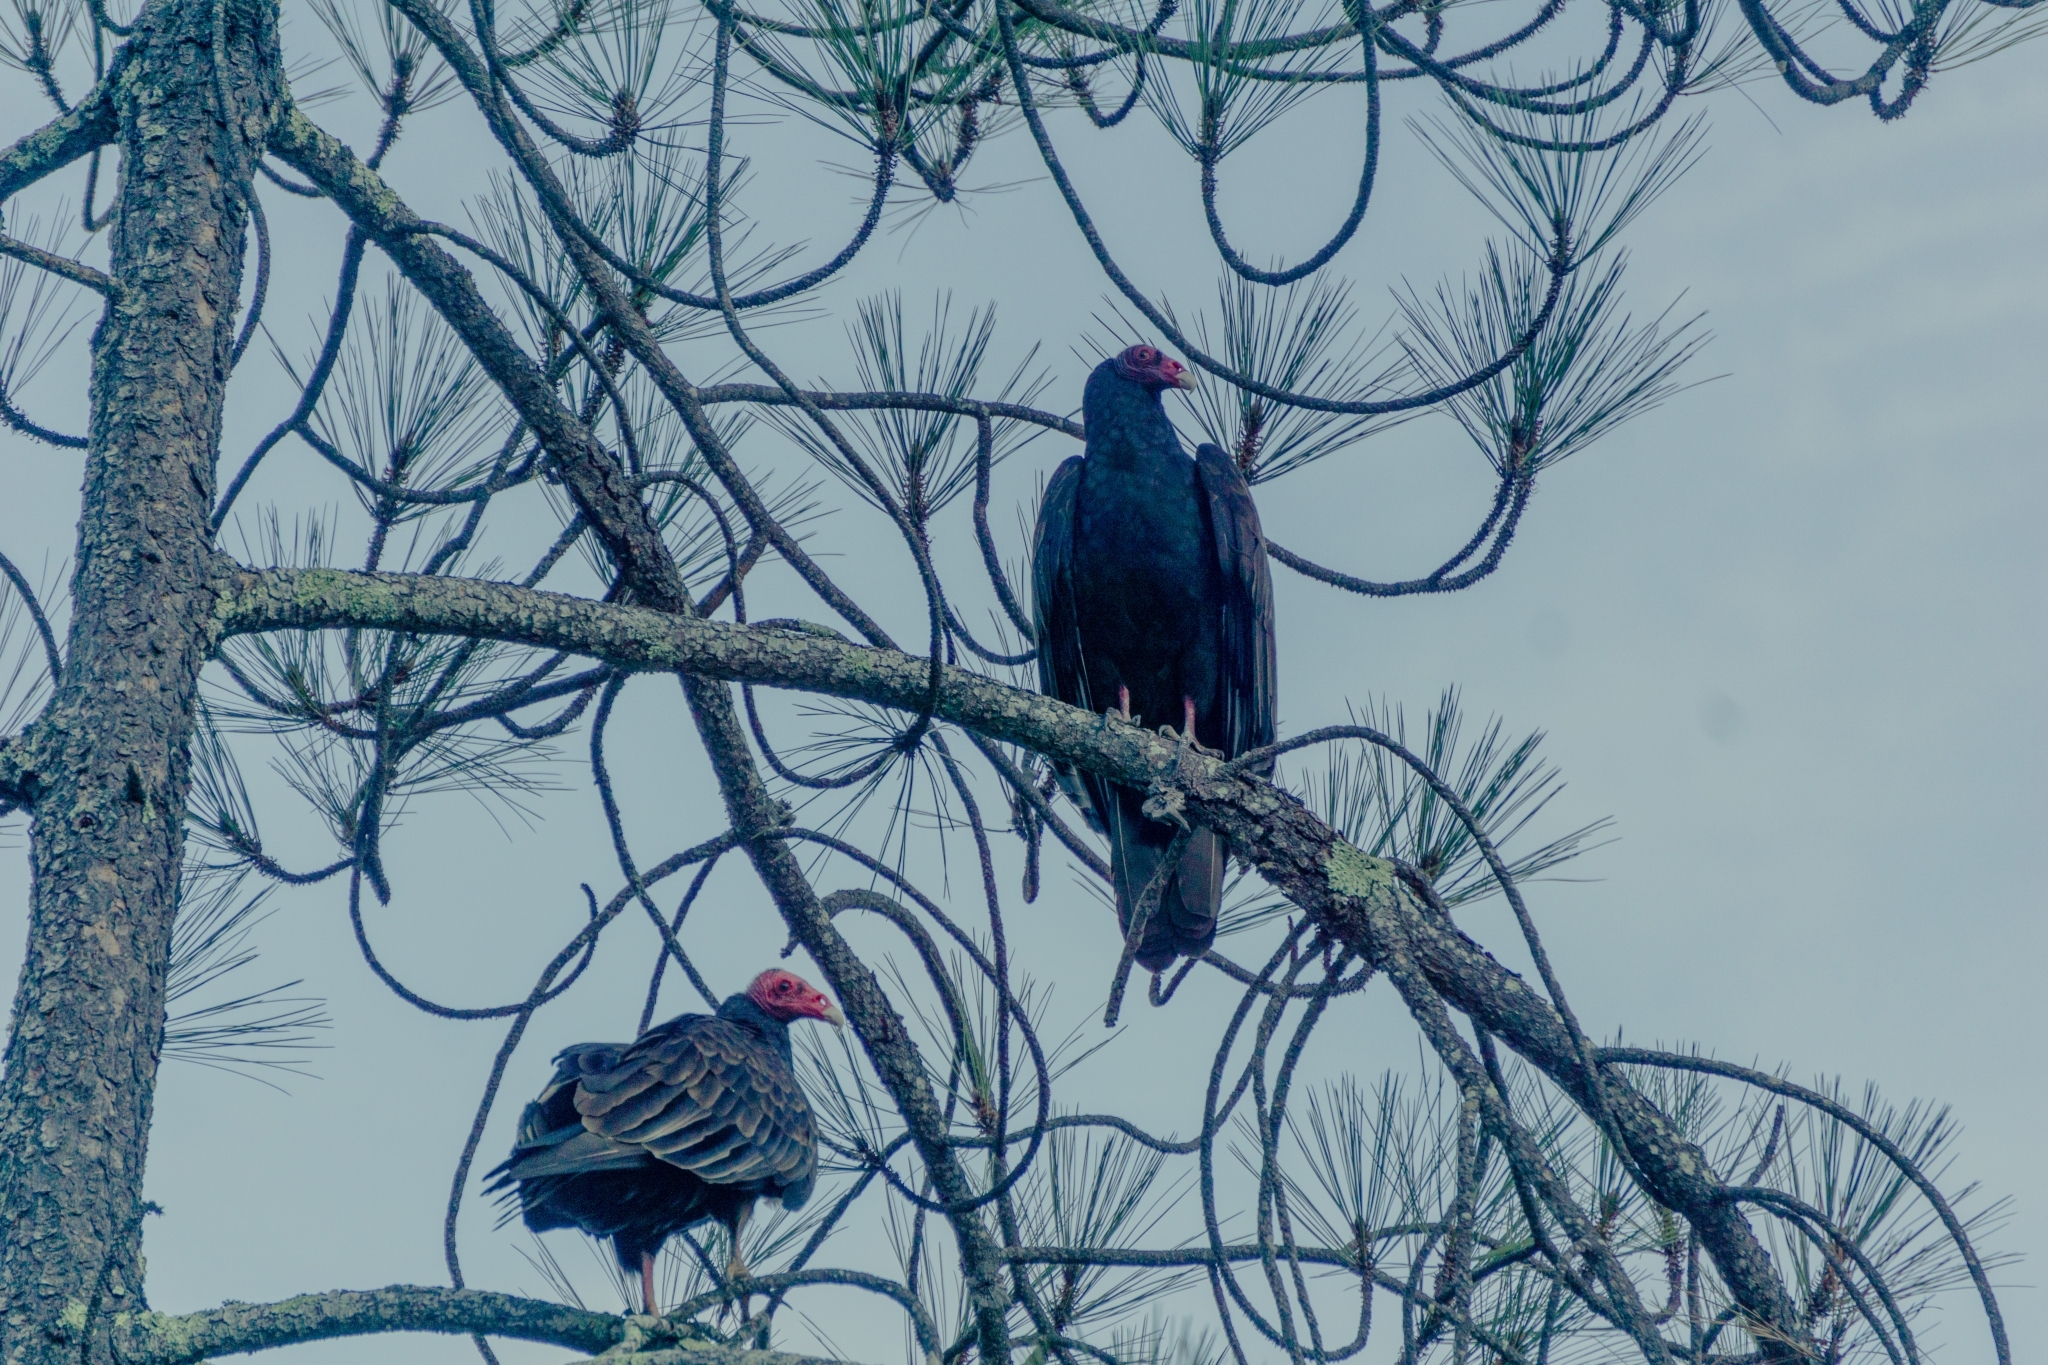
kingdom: Animalia
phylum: Chordata
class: Aves
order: Accipitriformes
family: Cathartidae
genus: Cathartes
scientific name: Cathartes aura
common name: Turkey vulture
